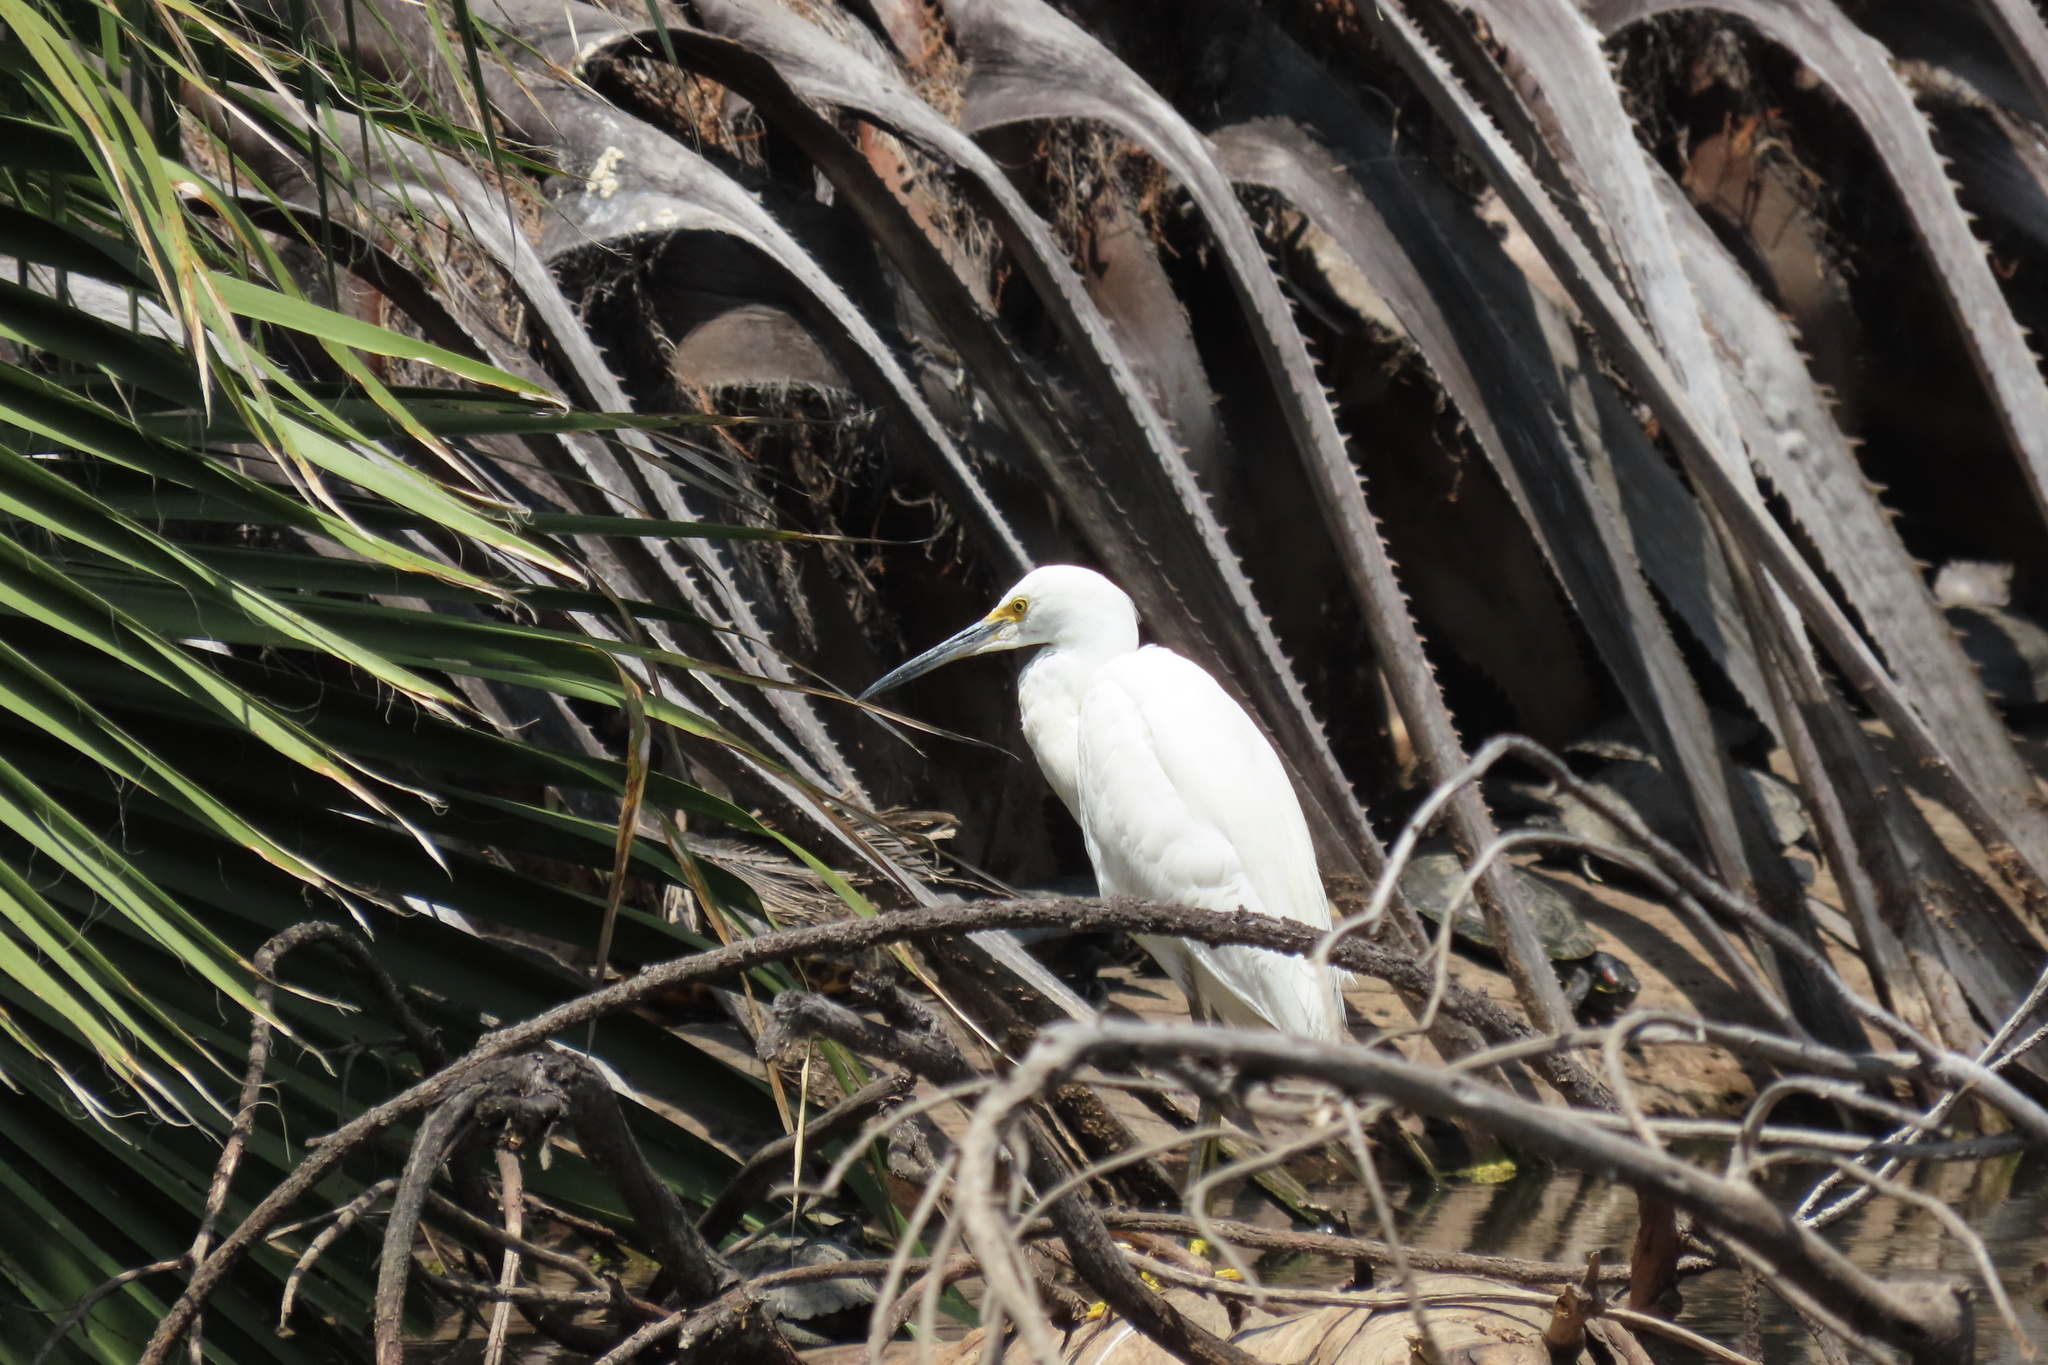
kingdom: Animalia
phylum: Chordata
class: Aves
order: Pelecaniformes
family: Ardeidae
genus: Egretta
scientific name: Egretta thula
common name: Snowy egret
